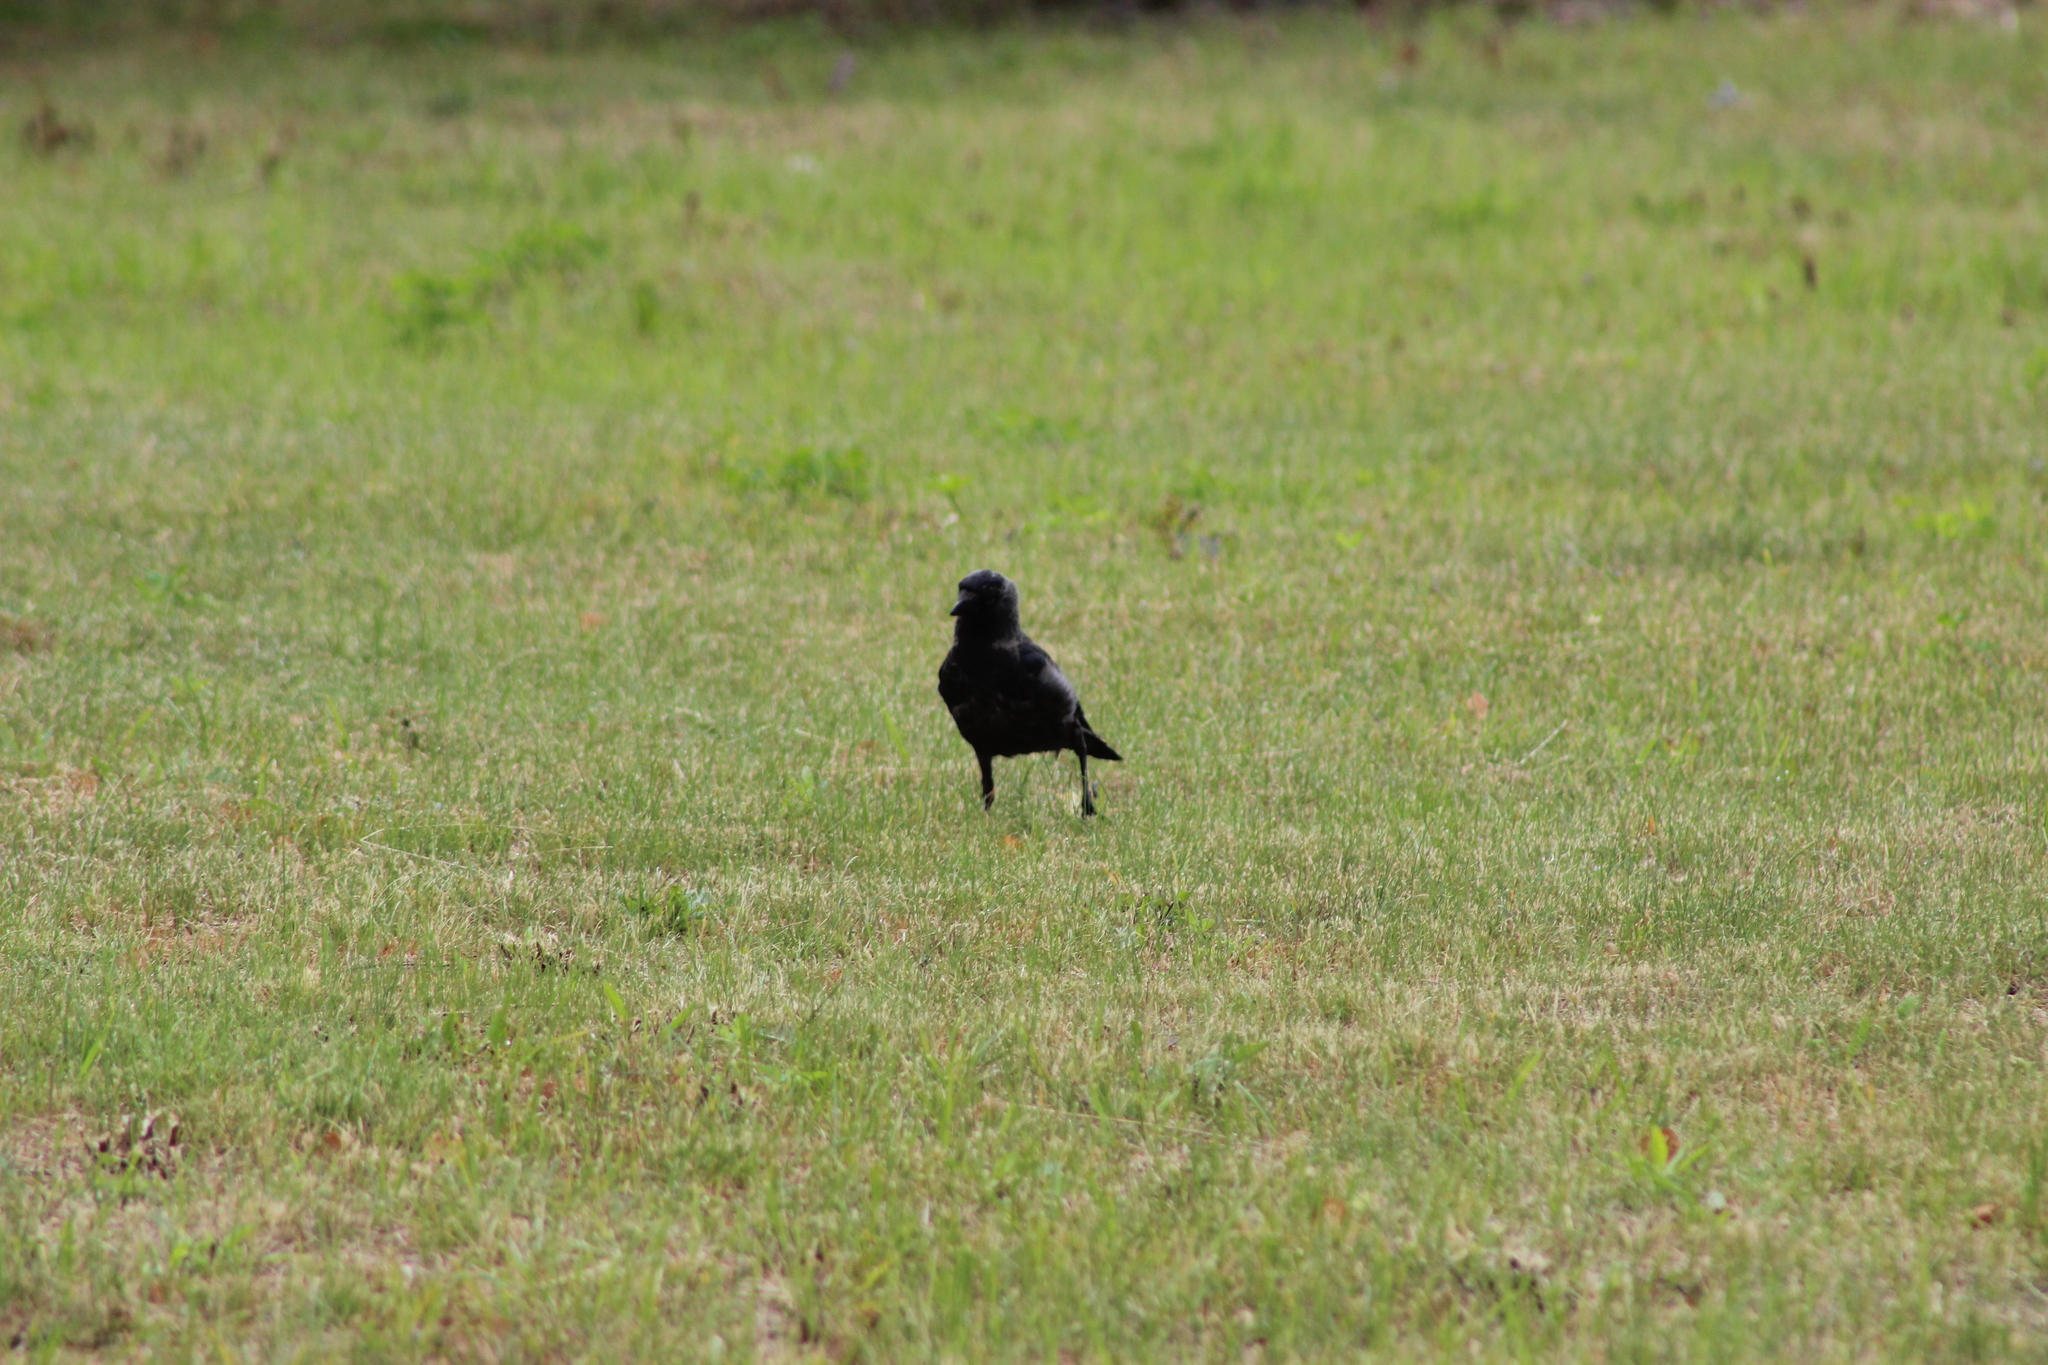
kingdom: Animalia
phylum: Chordata
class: Aves
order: Passeriformes
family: Corvidae
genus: Coloeus
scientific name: Coloeus monedula
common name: Western jackdaw
